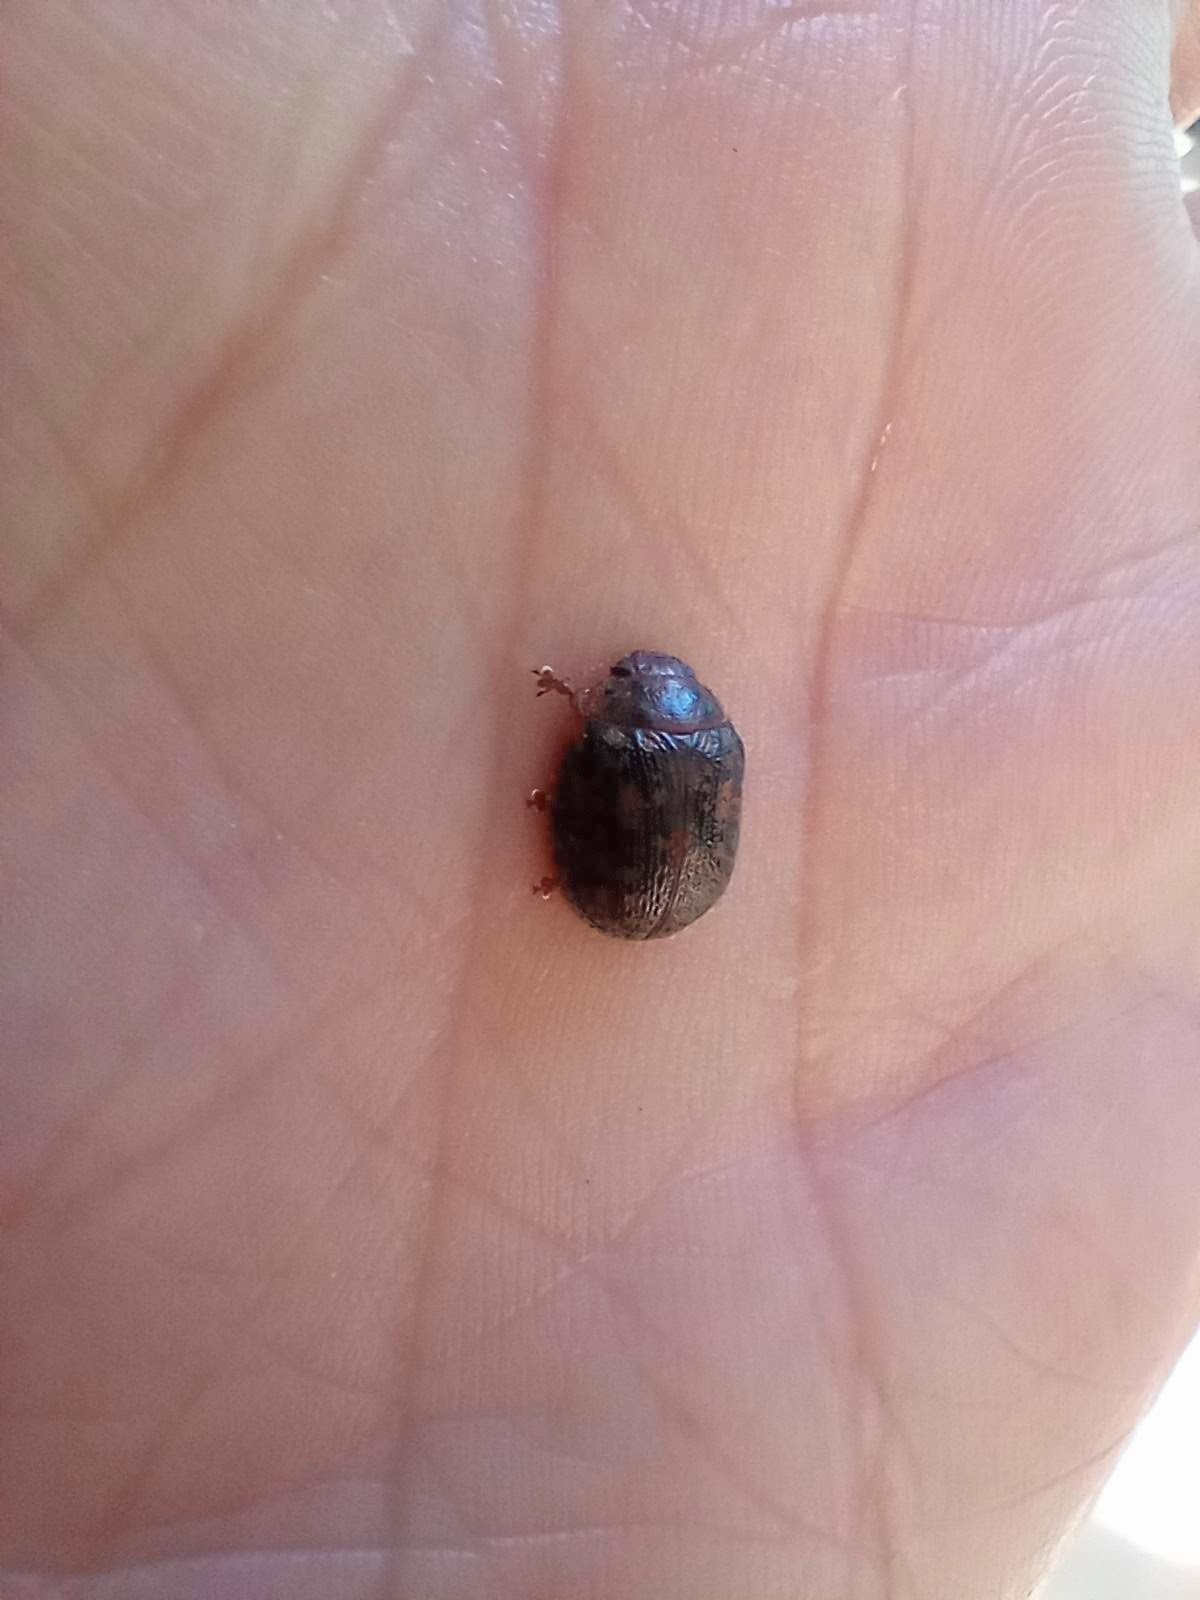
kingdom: Animalia
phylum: Arthropoda
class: Insecta
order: Coleoptera
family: Chrysomelidae
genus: Trachymela
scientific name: Trachymela sloanei
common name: Australian tortoise beetle
